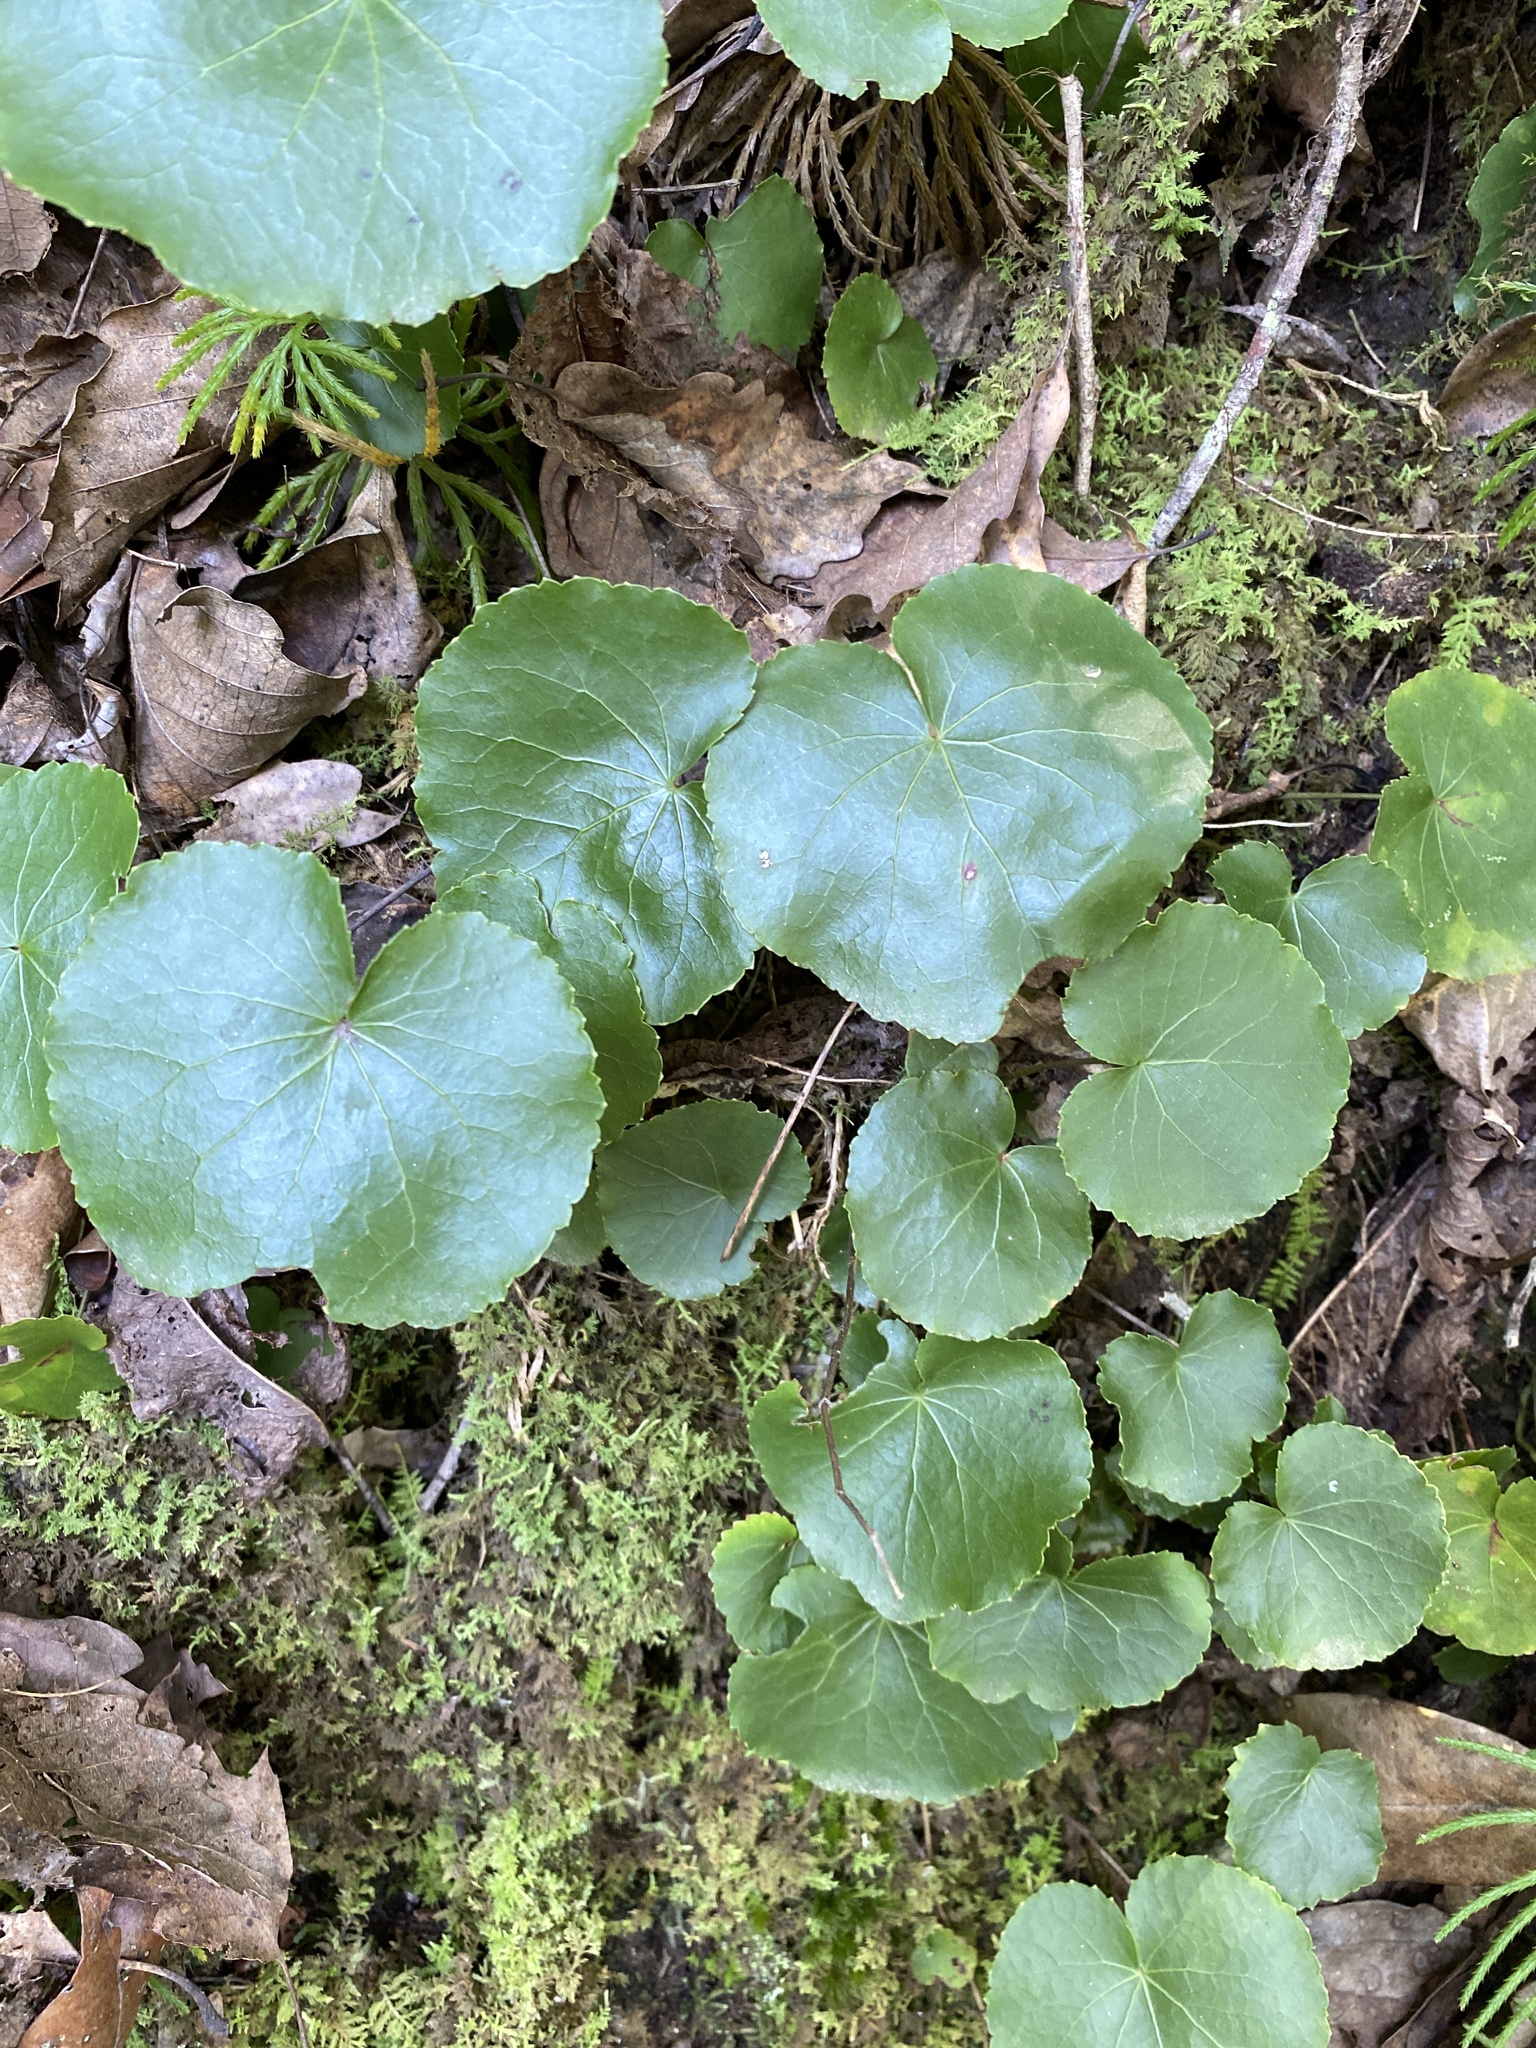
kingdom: Plantae
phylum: Tracheophyta
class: Magnoliopsida
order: Ericales
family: Diapensiaceae
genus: Galax
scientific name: Galax urceolata
